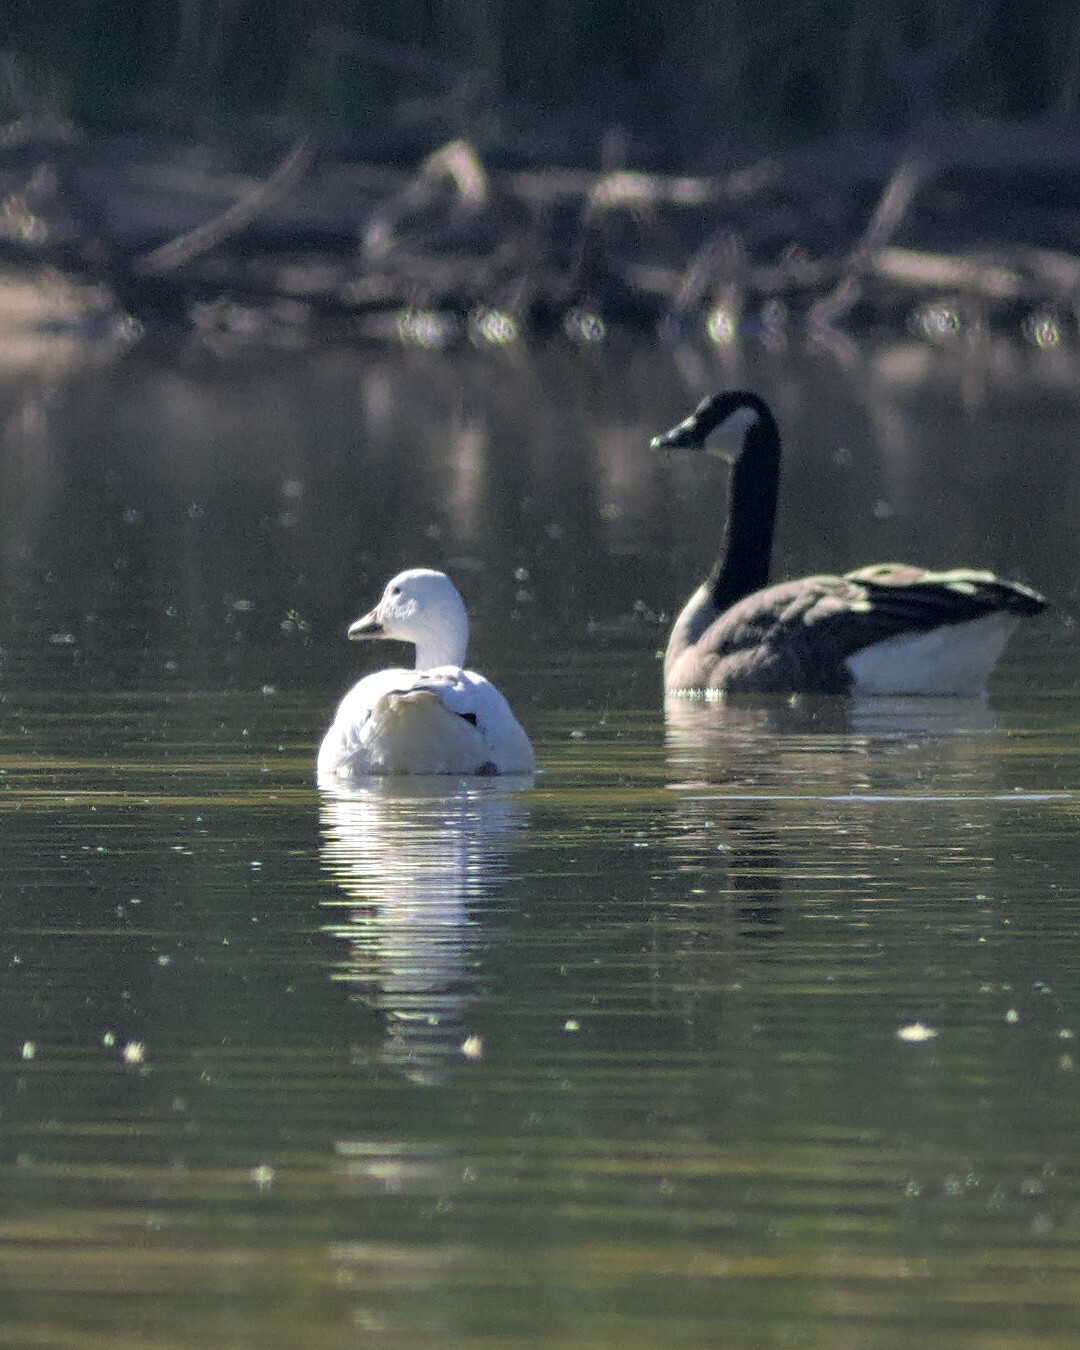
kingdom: Animalia
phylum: Chordata
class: Aves
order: Anseriformes
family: Anatidae
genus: Anser
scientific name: Anser caerulescens
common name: Snow goose
